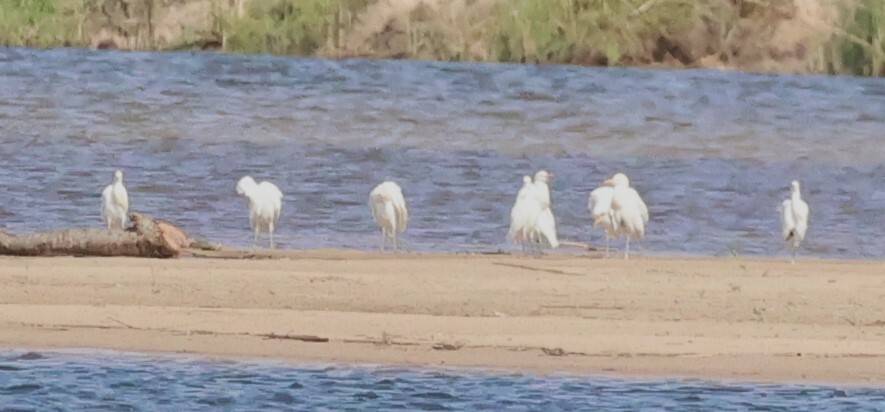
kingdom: Animalia
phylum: Chordata
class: Aves
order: Pelecaniformes
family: Ardeidae
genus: Bubulcus
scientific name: Bubulcus ibis
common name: Cattle egret
